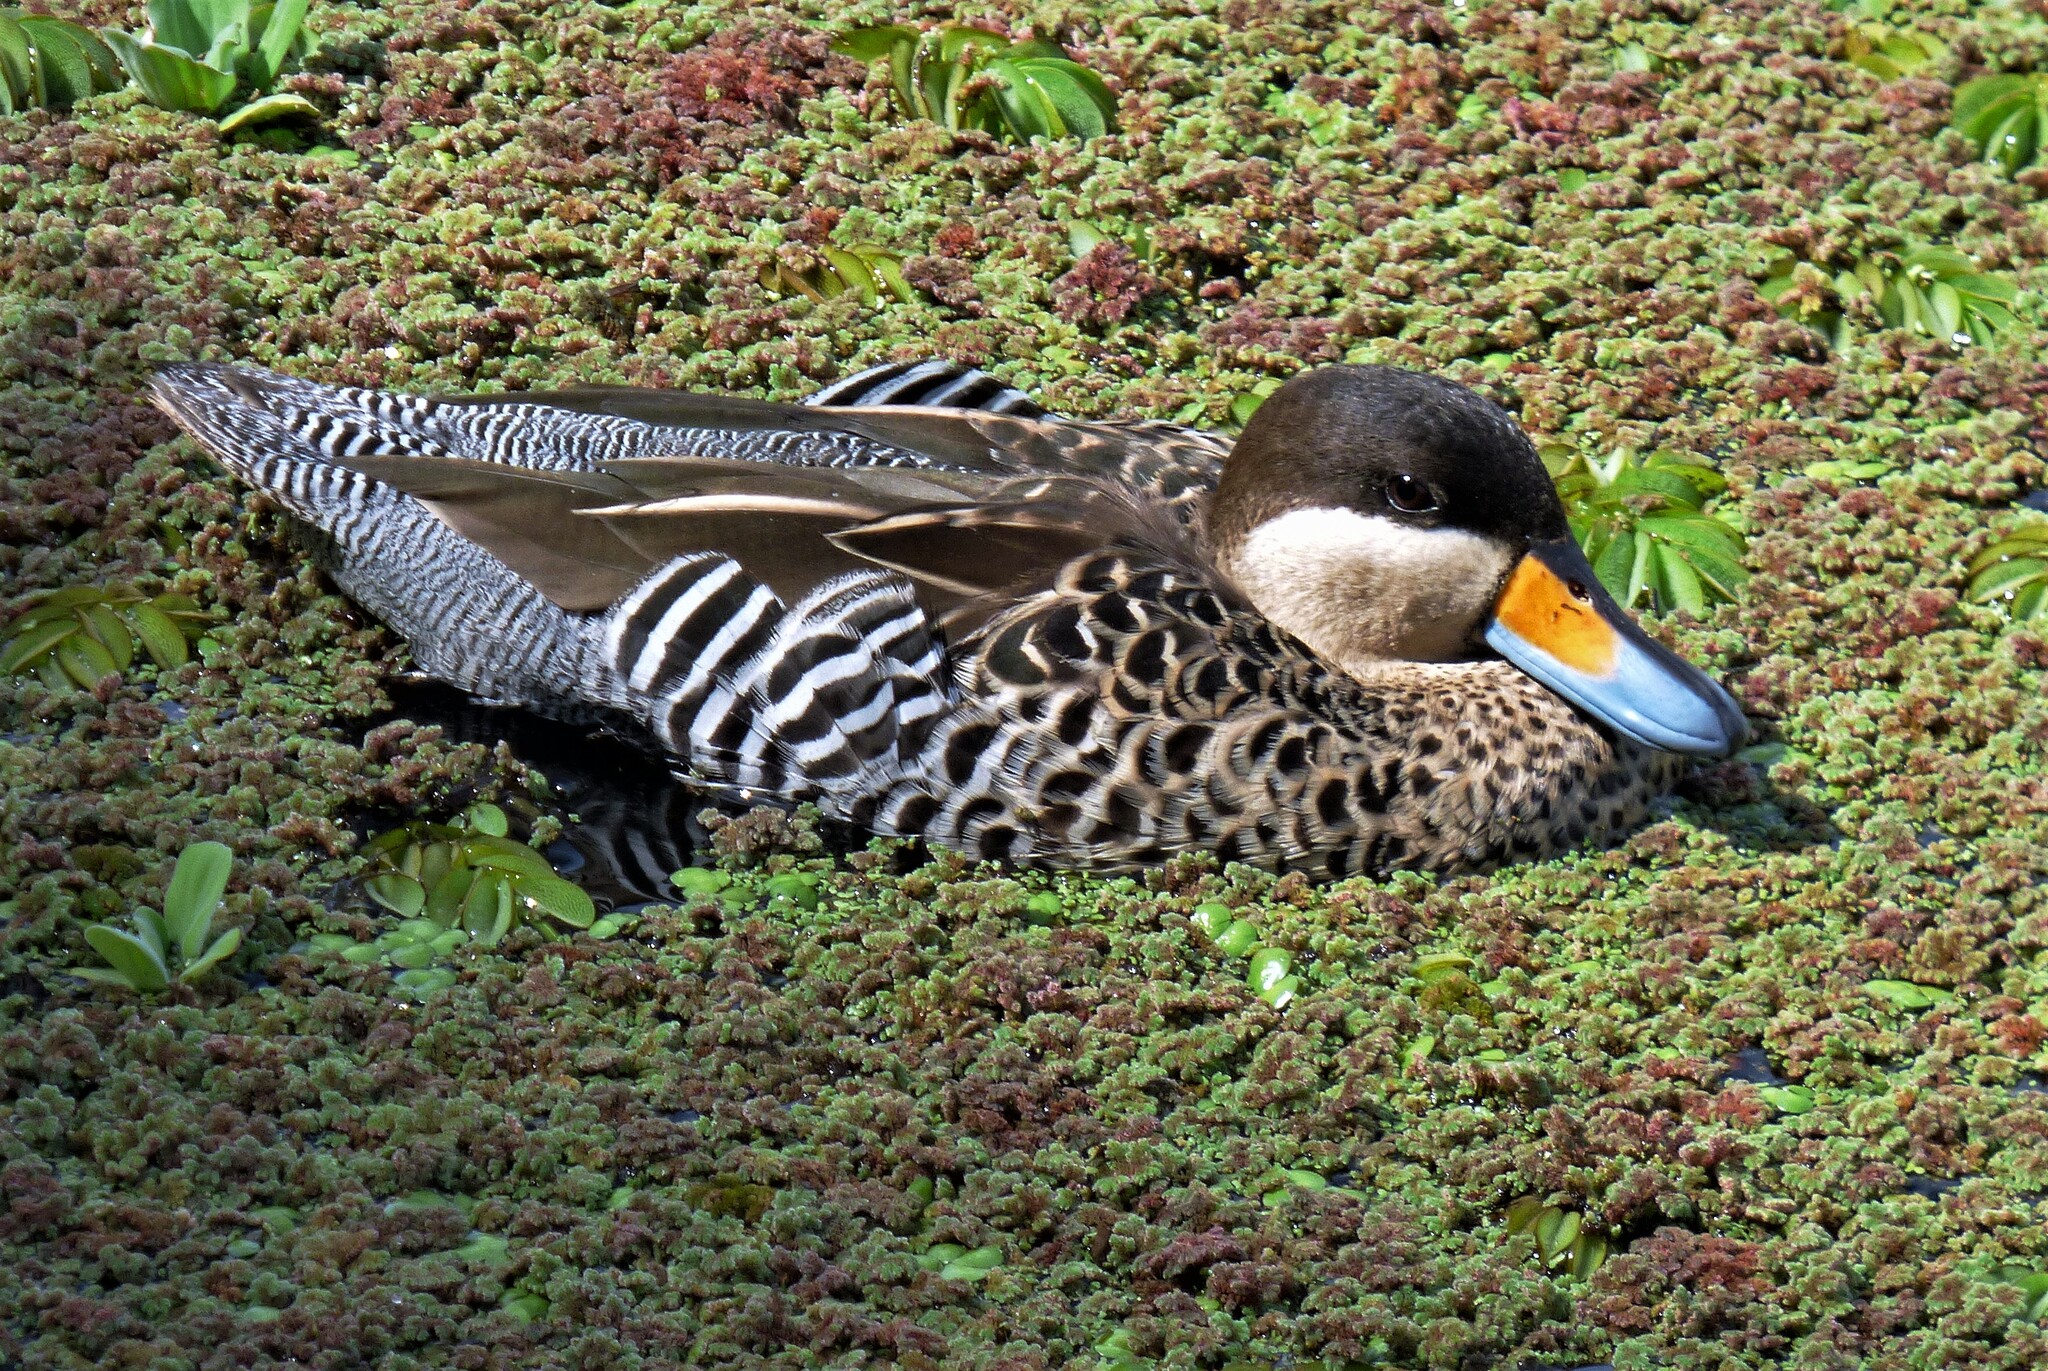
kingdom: Animalia
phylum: Chordata
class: Aves
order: Anseriformes
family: Anatidae
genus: Spatula
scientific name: Spatula versicolor
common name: Silver teal
